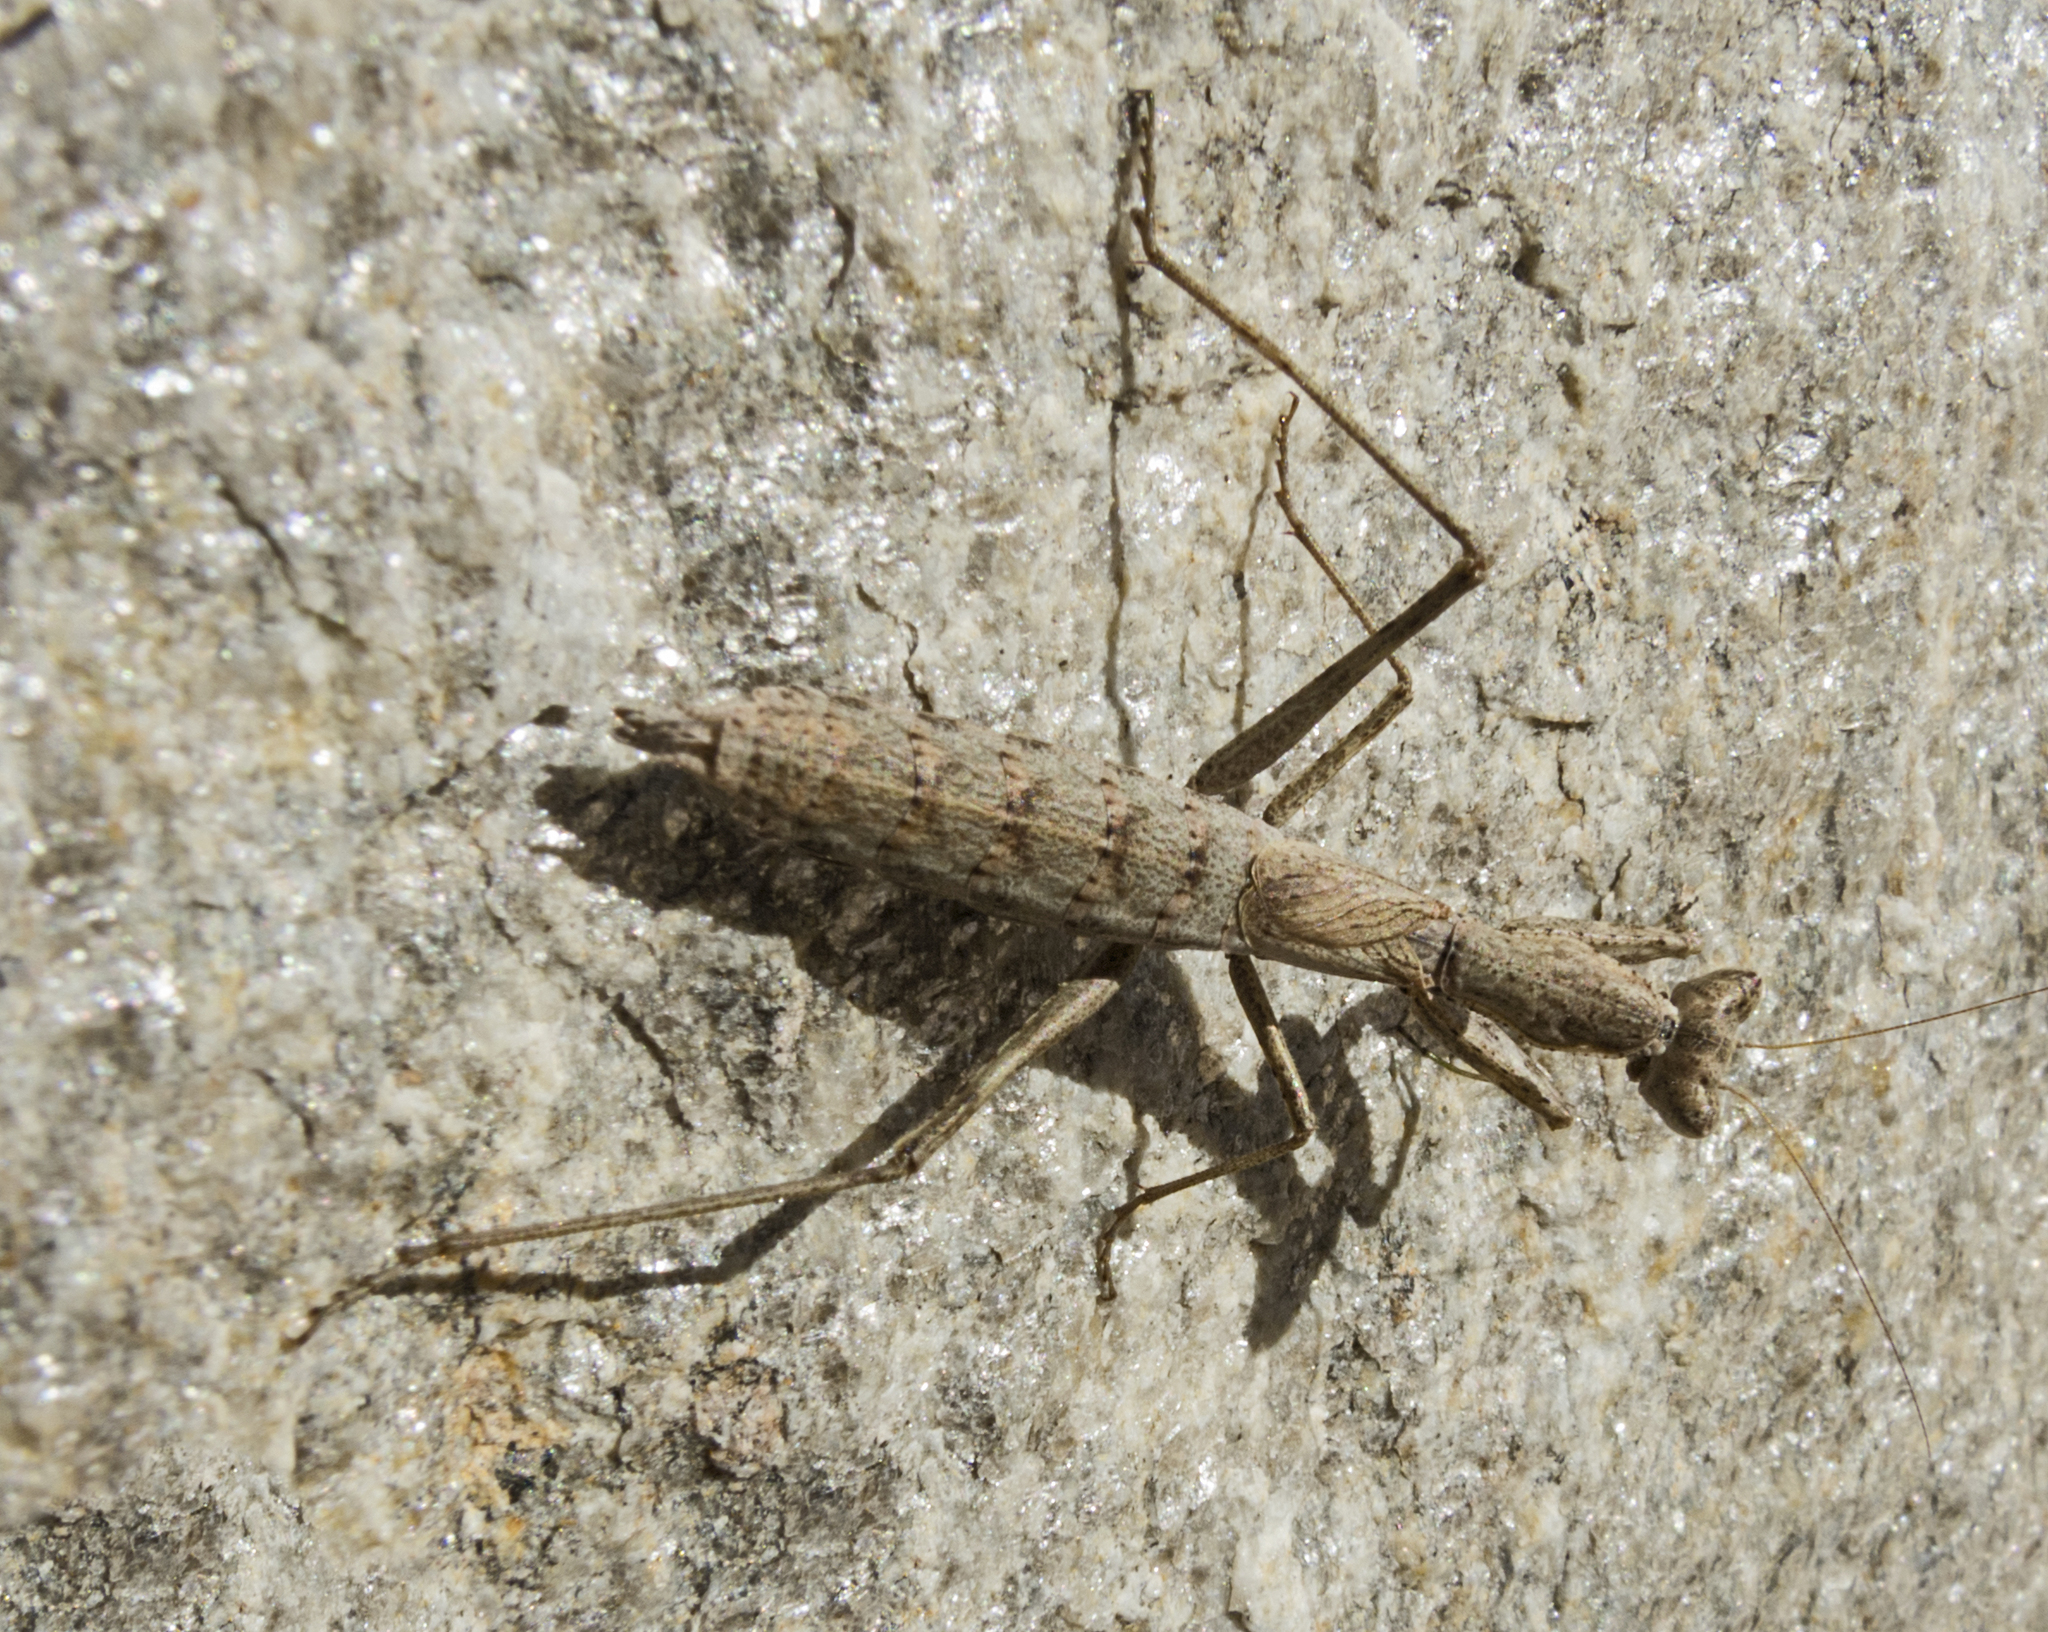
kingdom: Animalia
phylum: Arthropoda
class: Insecta
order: Mantodea
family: Amelidae
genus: Ameles
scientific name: Ameles heldreichi
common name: Heldreich's dwarf mantis
